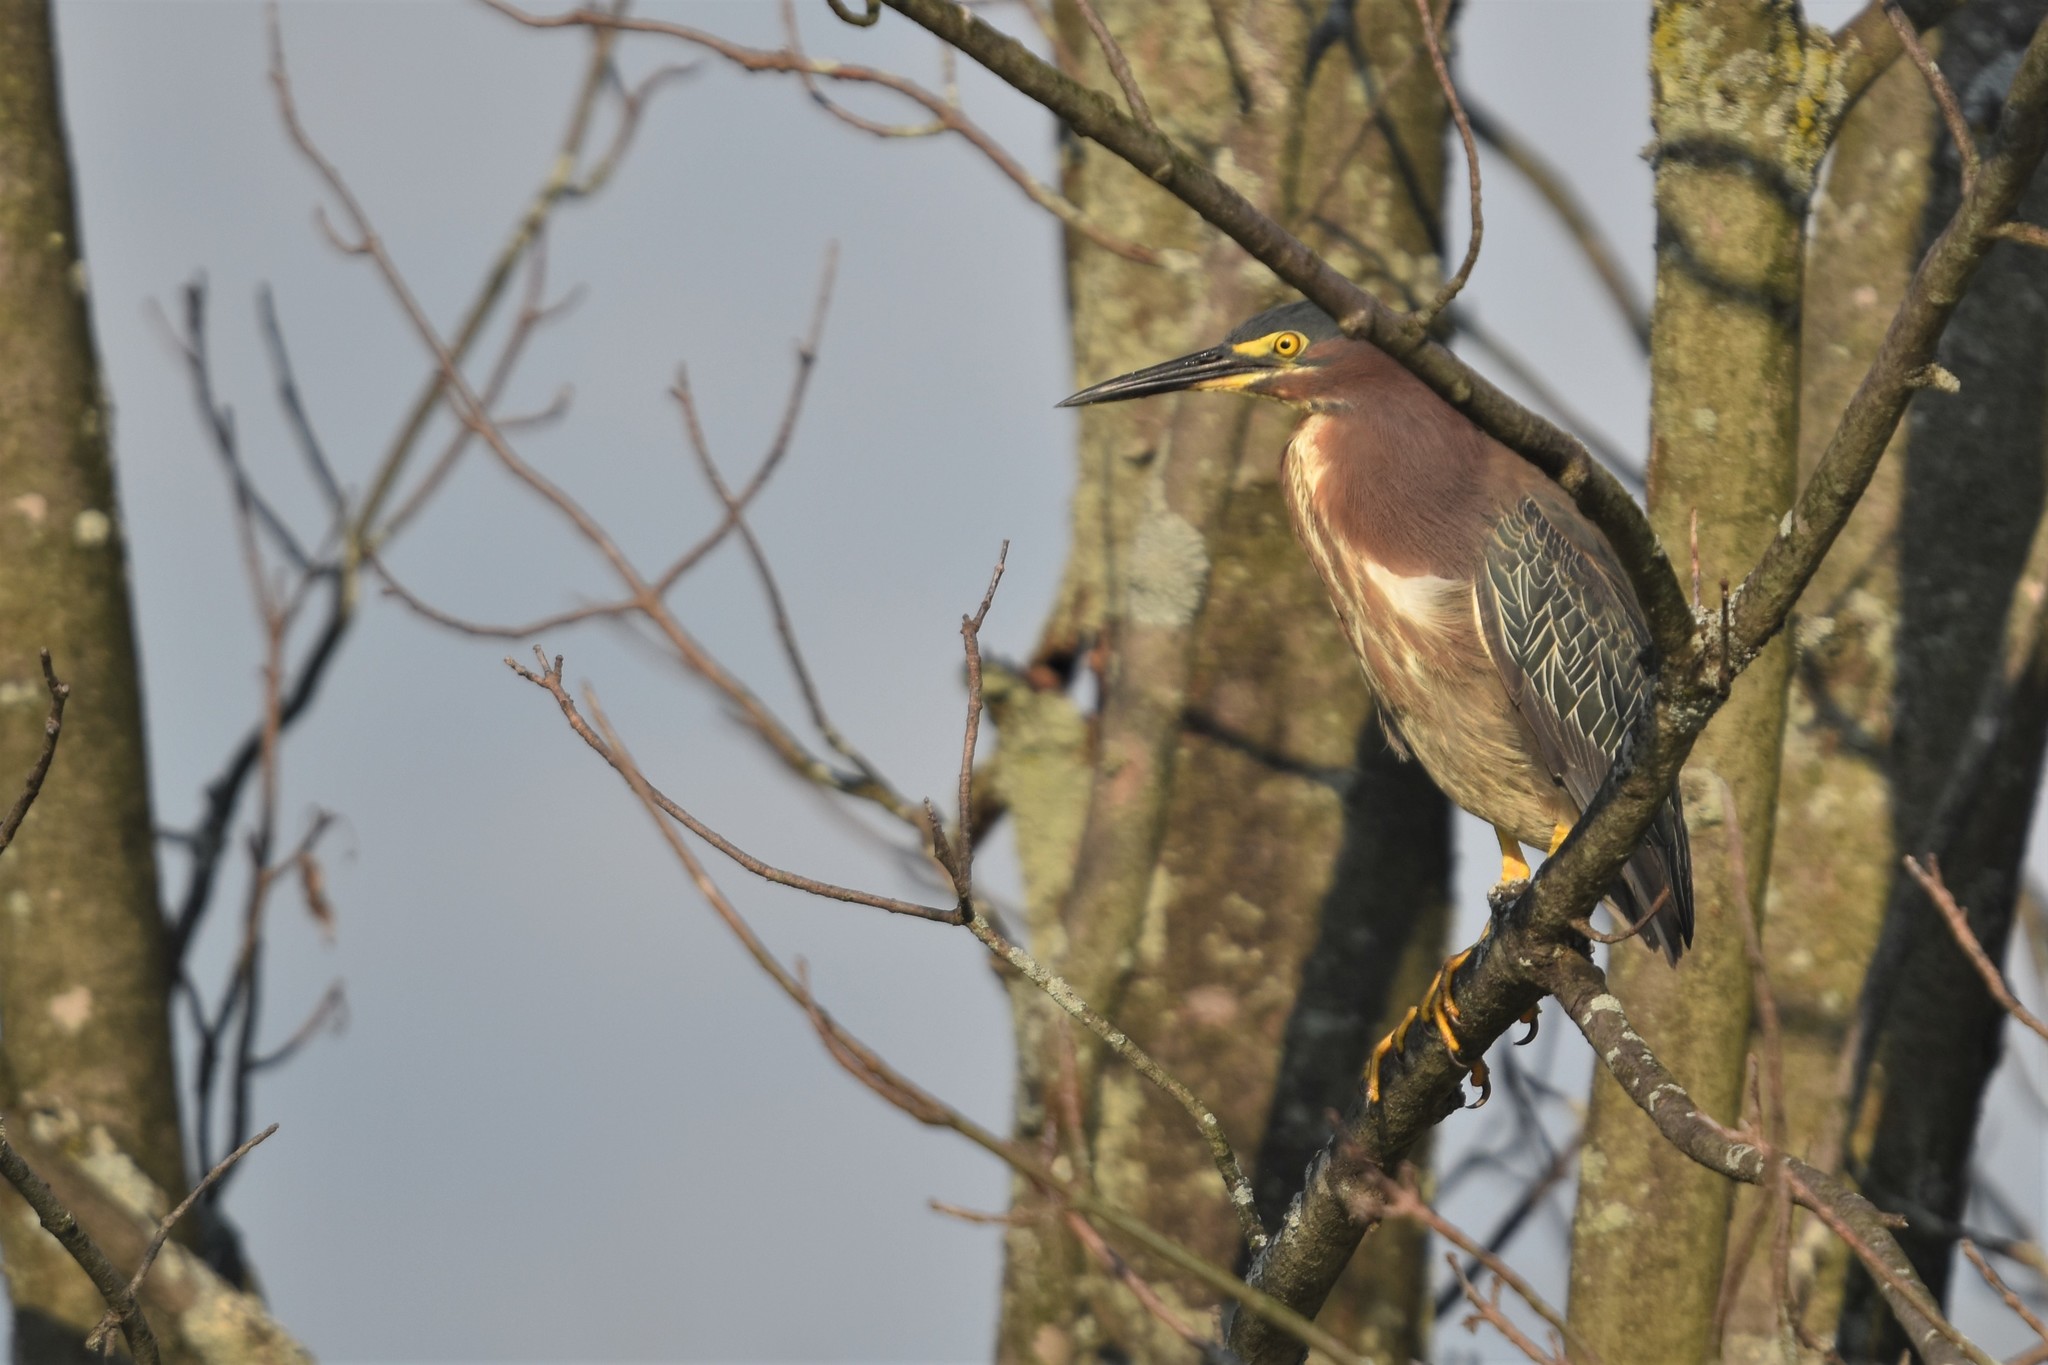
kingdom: Animalia
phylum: Chordata
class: Aves
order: Pelecaniformes
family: Ardeidae
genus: Butorides
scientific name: Butorides virescens
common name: Green heron
